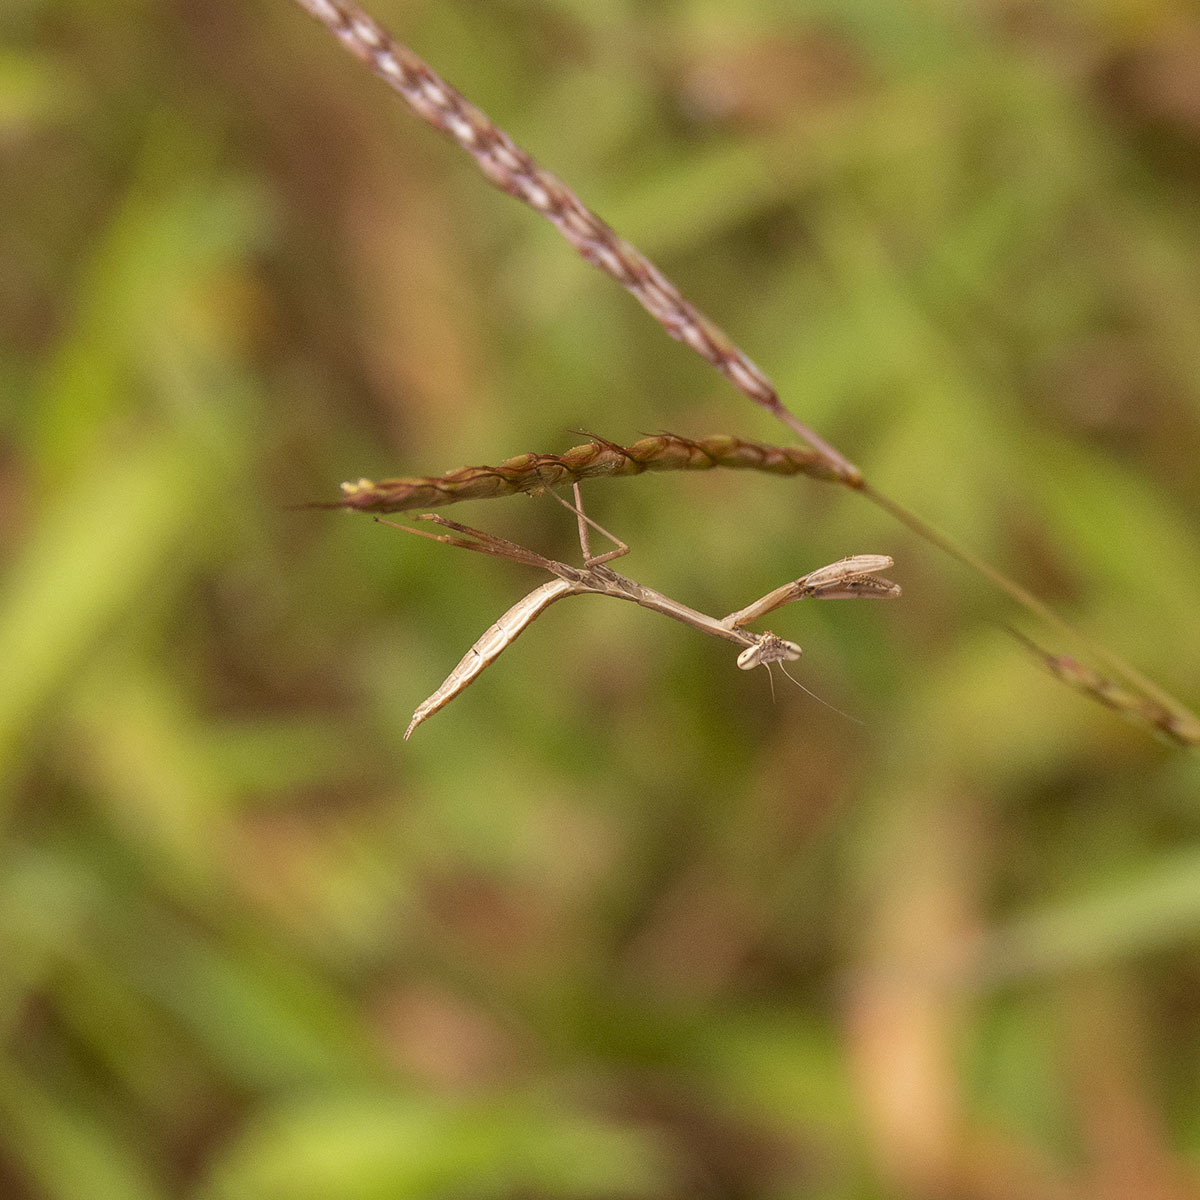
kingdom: Animalia
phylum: Arthropoda
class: Insecta
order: Mantodea
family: Mantidae
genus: Hierodula
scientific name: Hierodula membranacea
